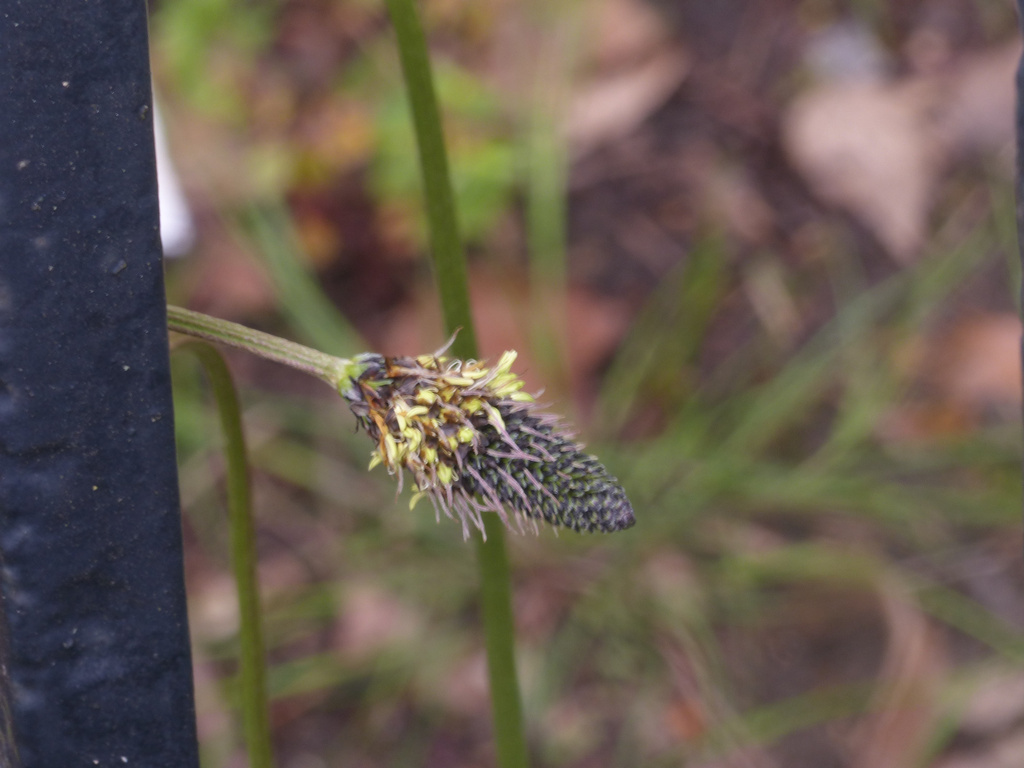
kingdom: Plantae
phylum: Tracheophyta
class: Magnoliopsida
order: Lamiales
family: Plantaginaceae
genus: Plantago
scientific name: Plantago lanceolata
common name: Ribwort plantain
